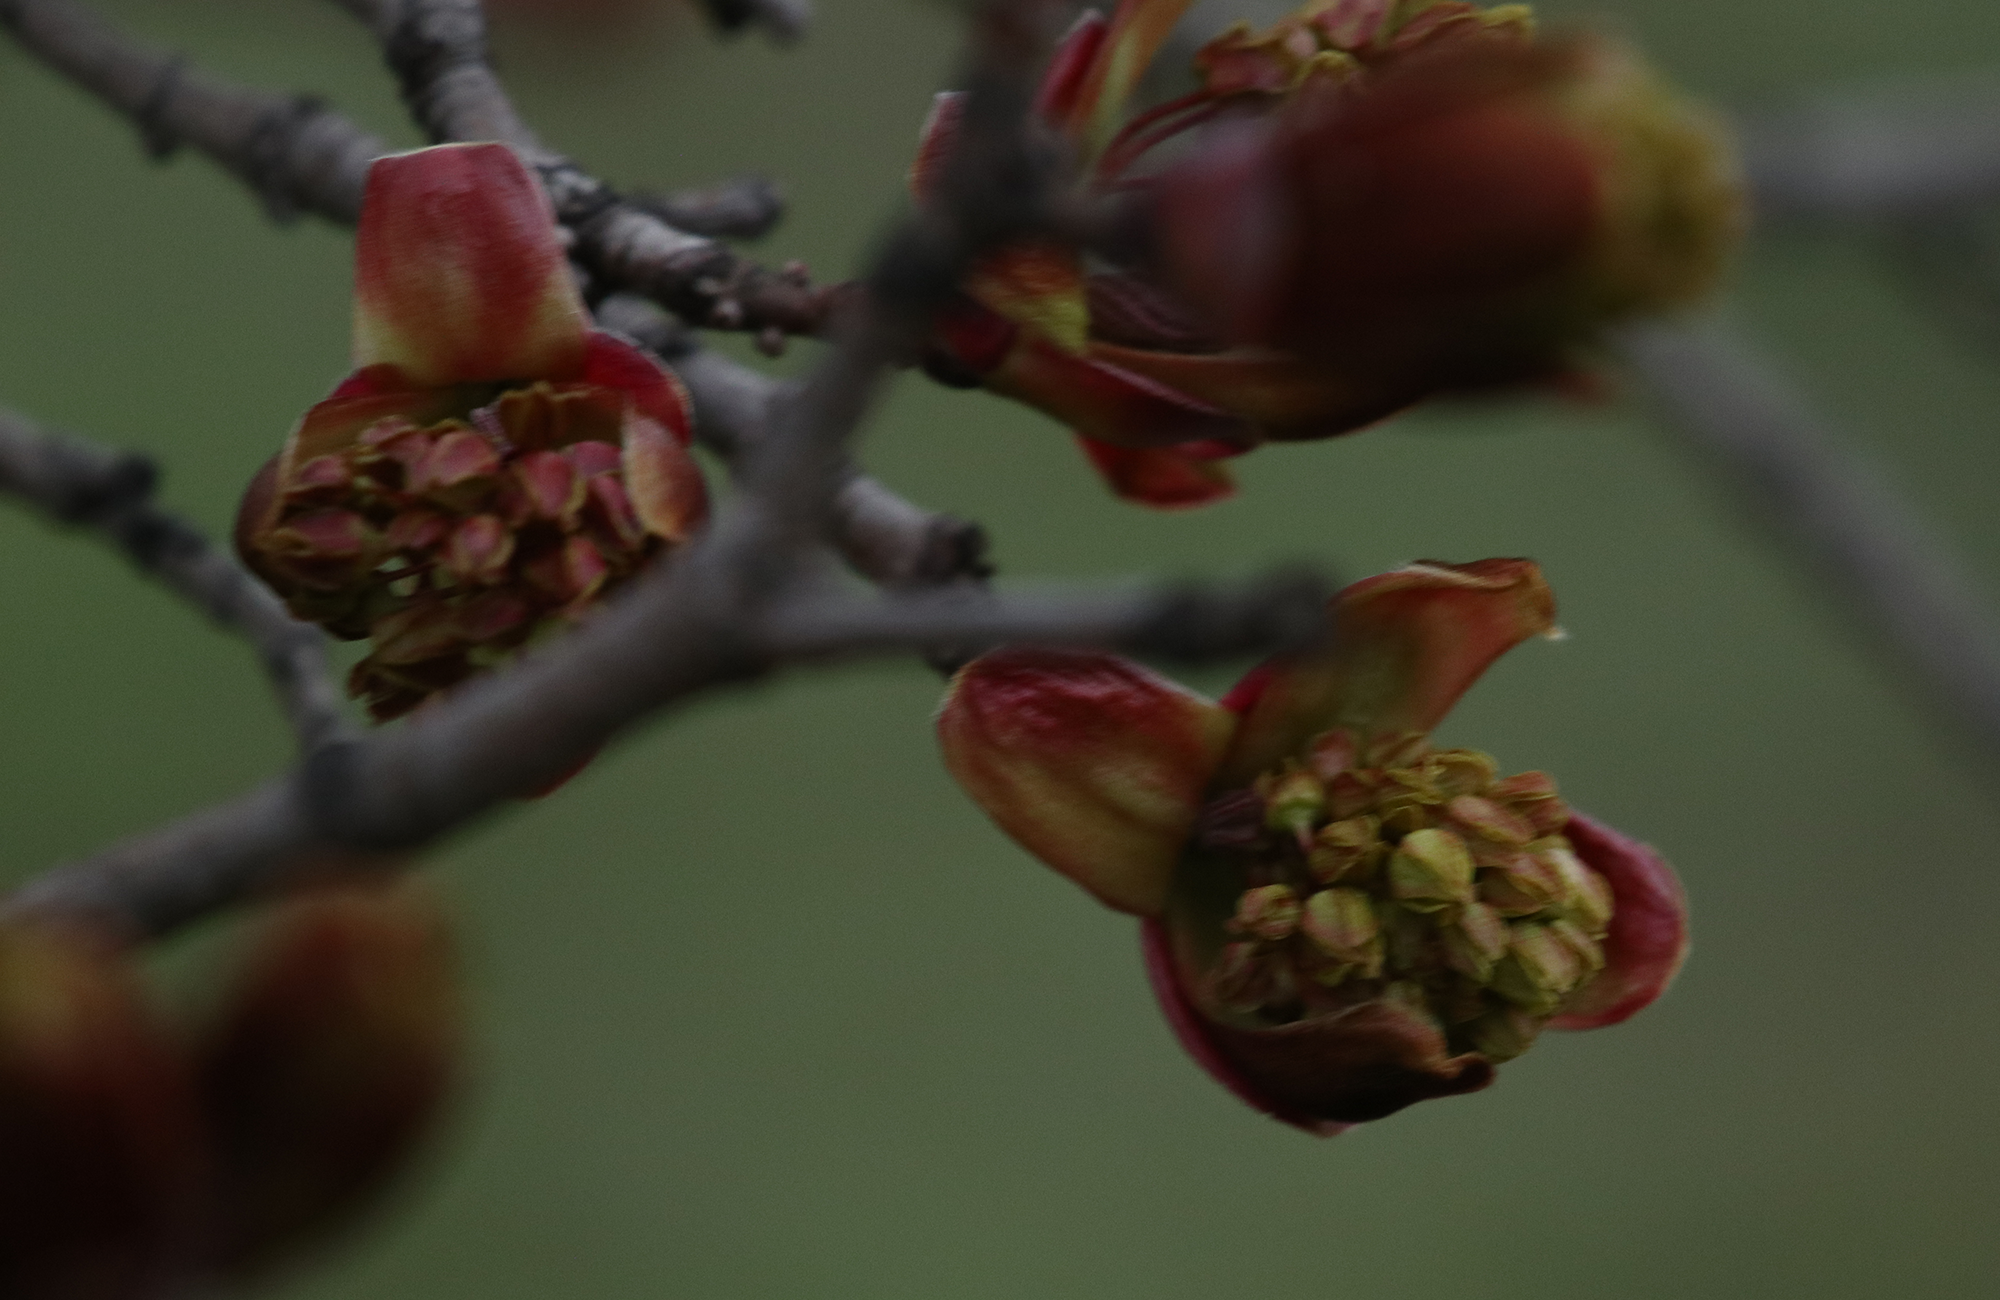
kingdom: Plantae
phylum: Tracheophyta
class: Magnoliopsida
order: Sapindales
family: Sapindaceae
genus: Acer
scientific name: Acer platanoides
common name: Norway maple
